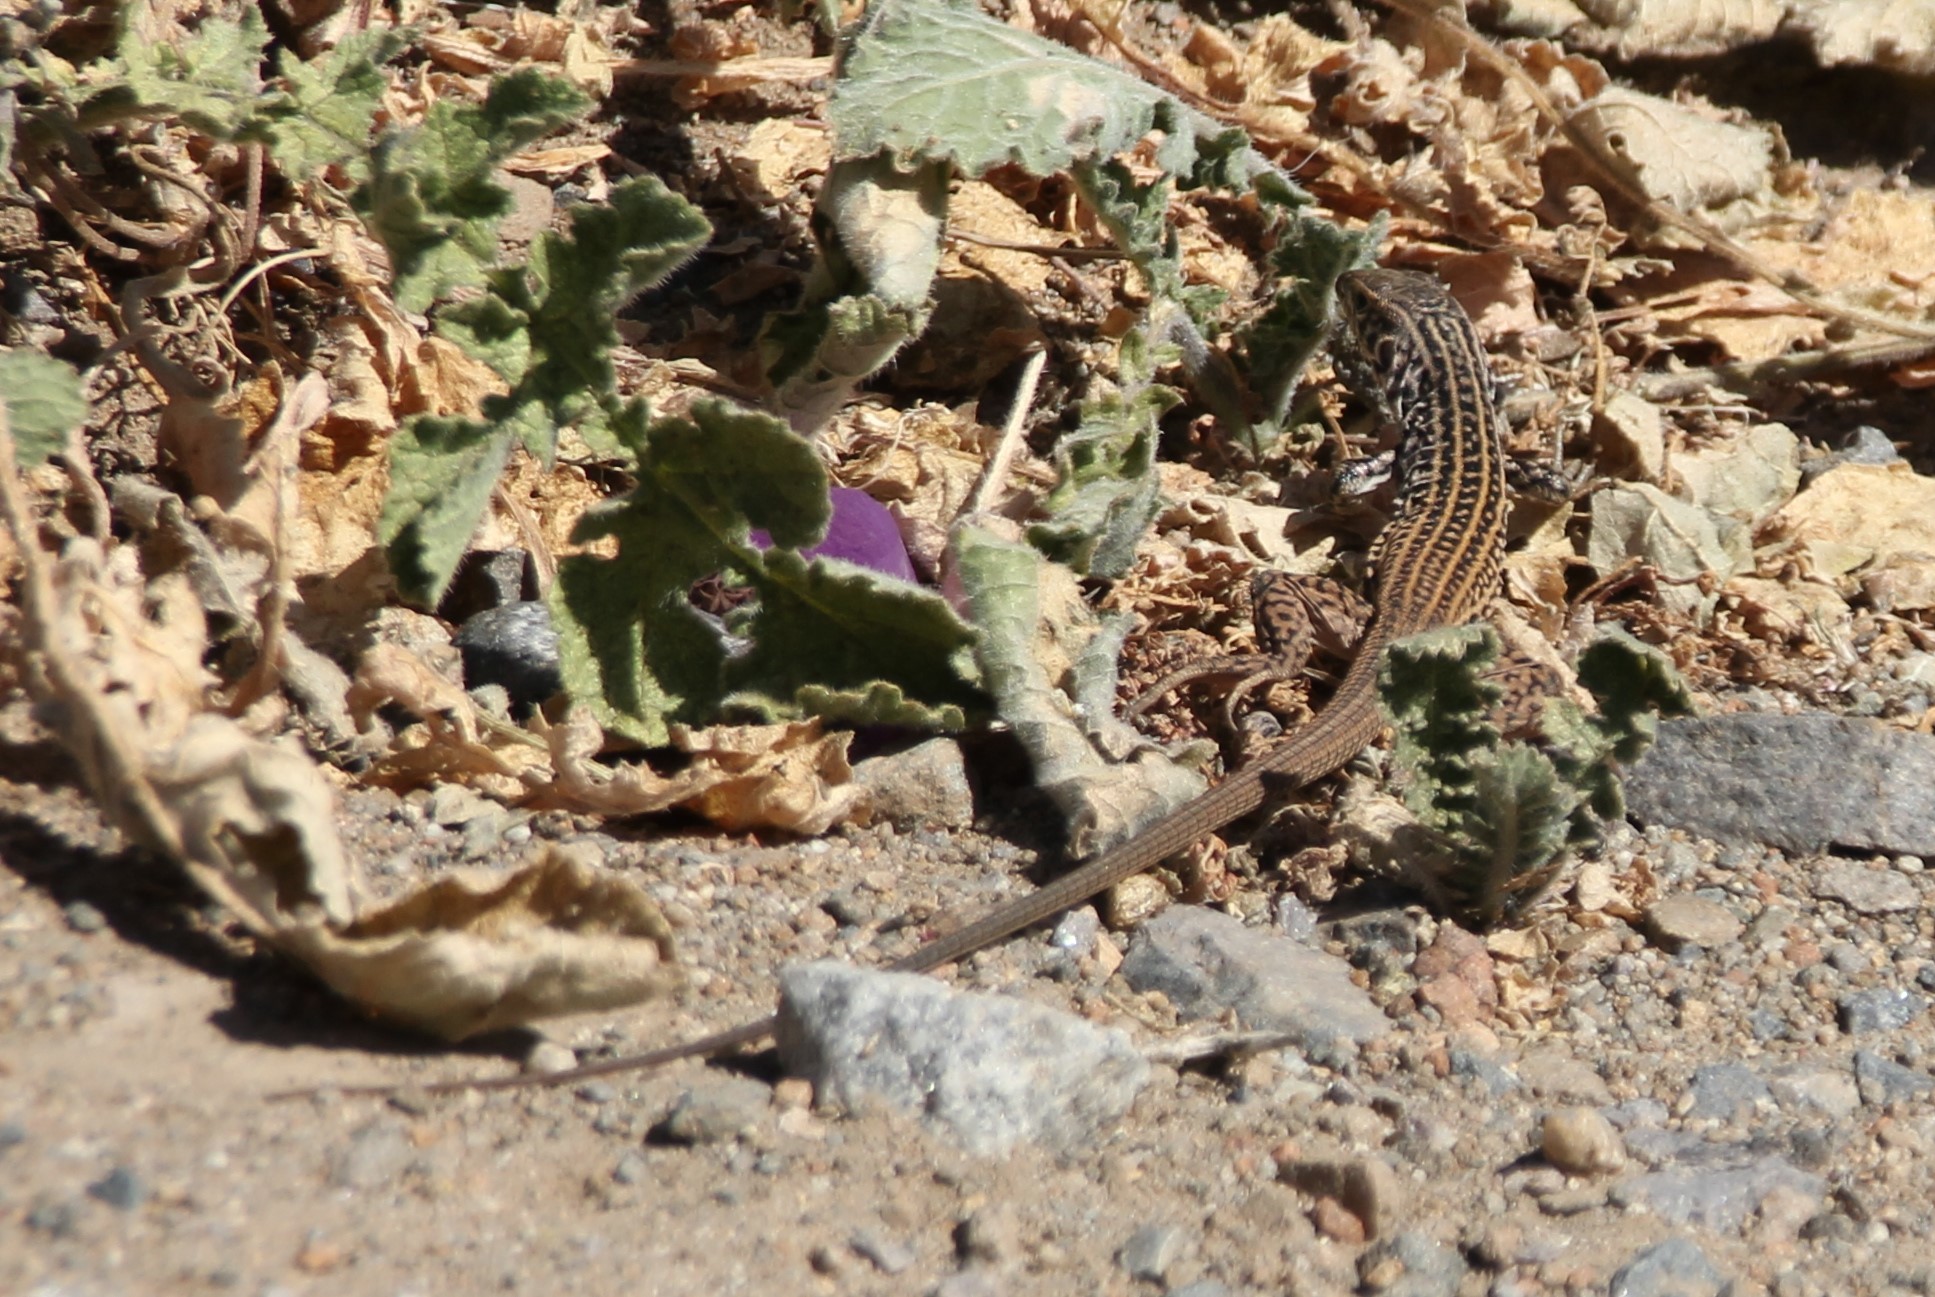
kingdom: Animalia
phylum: Chordata
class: Squamata
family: Teiidae
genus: Aspidoscelis
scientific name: Aspidoscelis tigris
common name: Tiger whiptail
